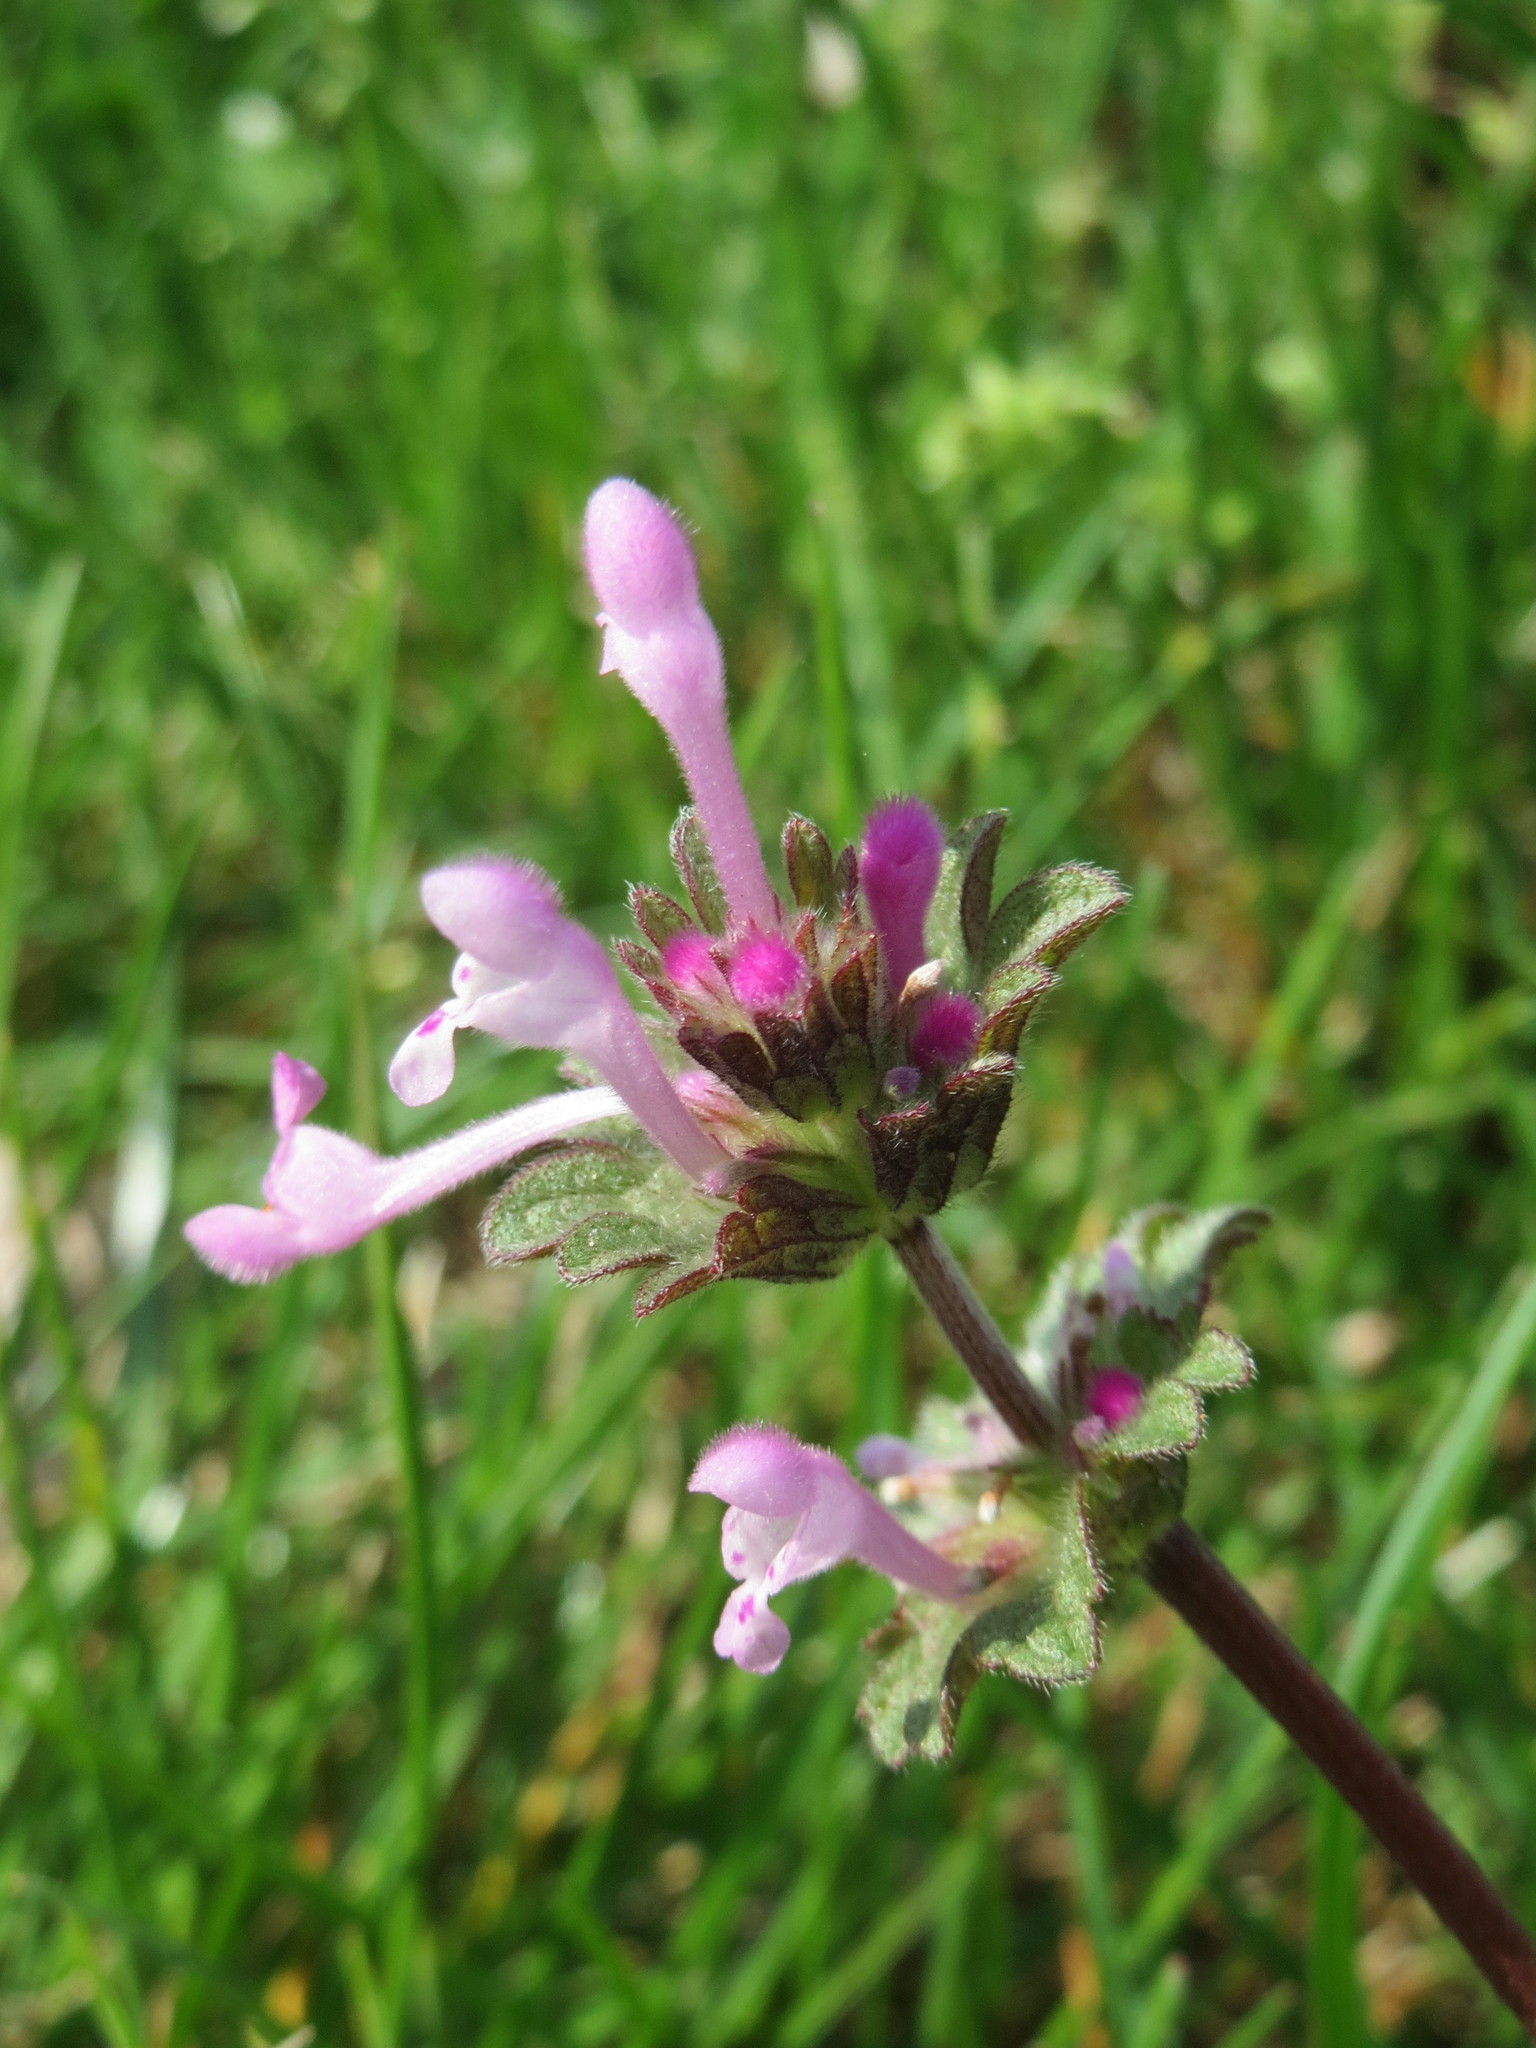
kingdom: Plantae
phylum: Tracheophyta
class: Magnoliopsida
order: Lamiales
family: Lamiaceae
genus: Lamium
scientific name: Lamium amplexicaule
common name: Henbit dead-nettle
